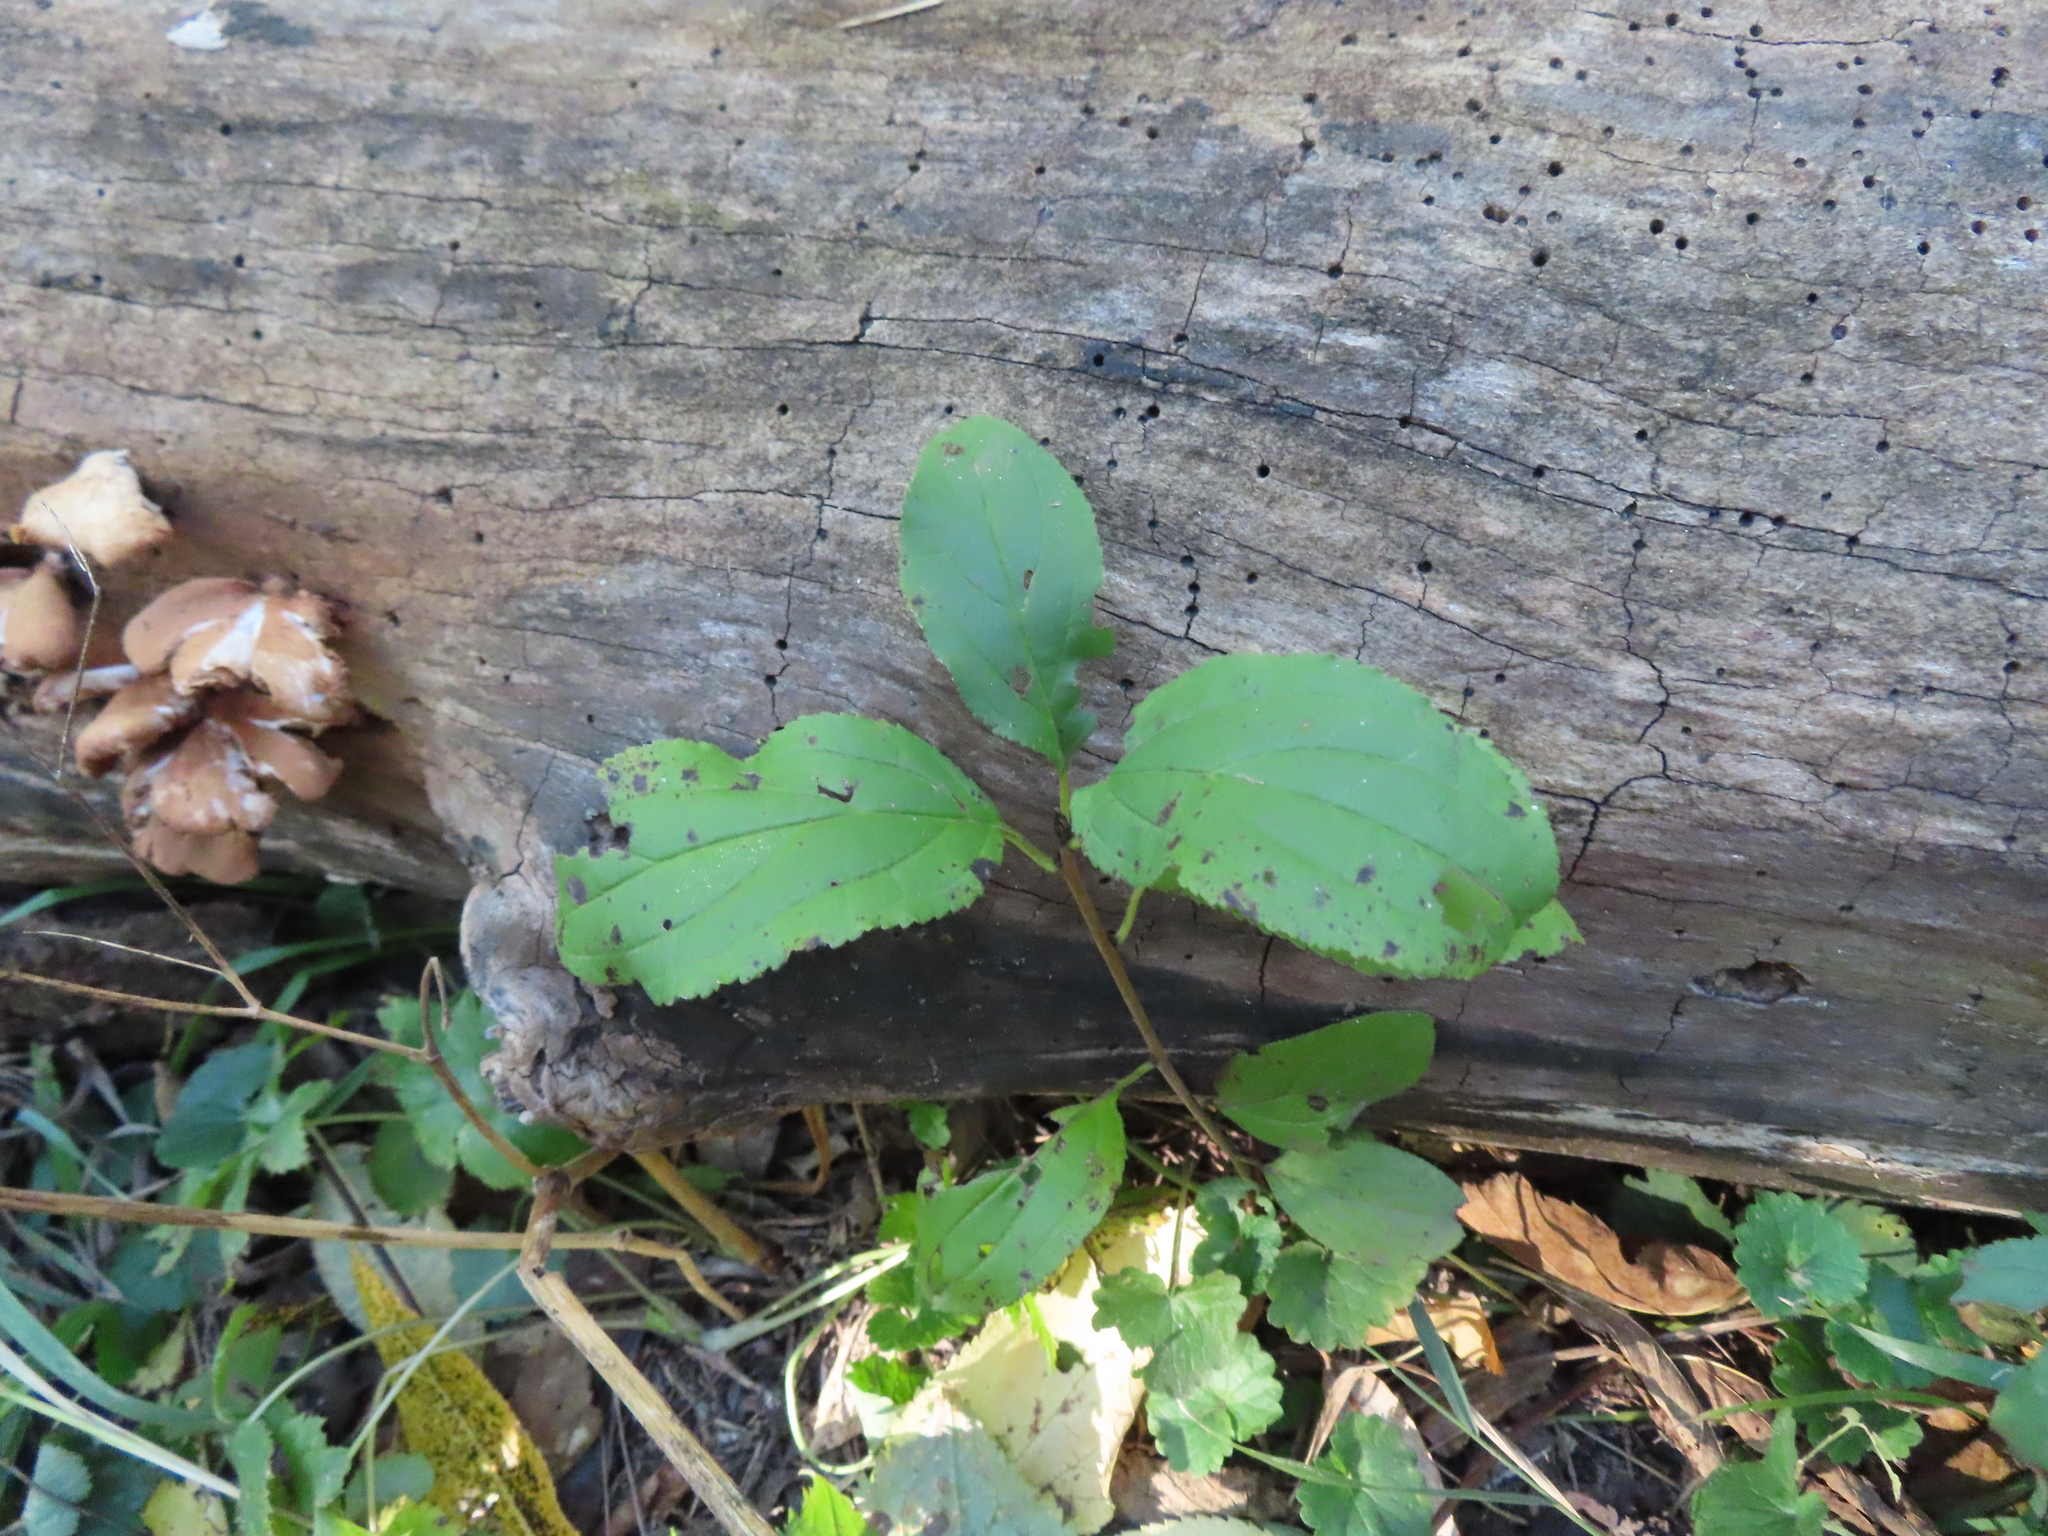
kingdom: Plantae
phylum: Tracheophyta
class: Magnoliopsida
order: Rosales
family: Rhamnaceae
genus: Rhamnus
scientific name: Rhamnus cathartica
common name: Common buckthorn
